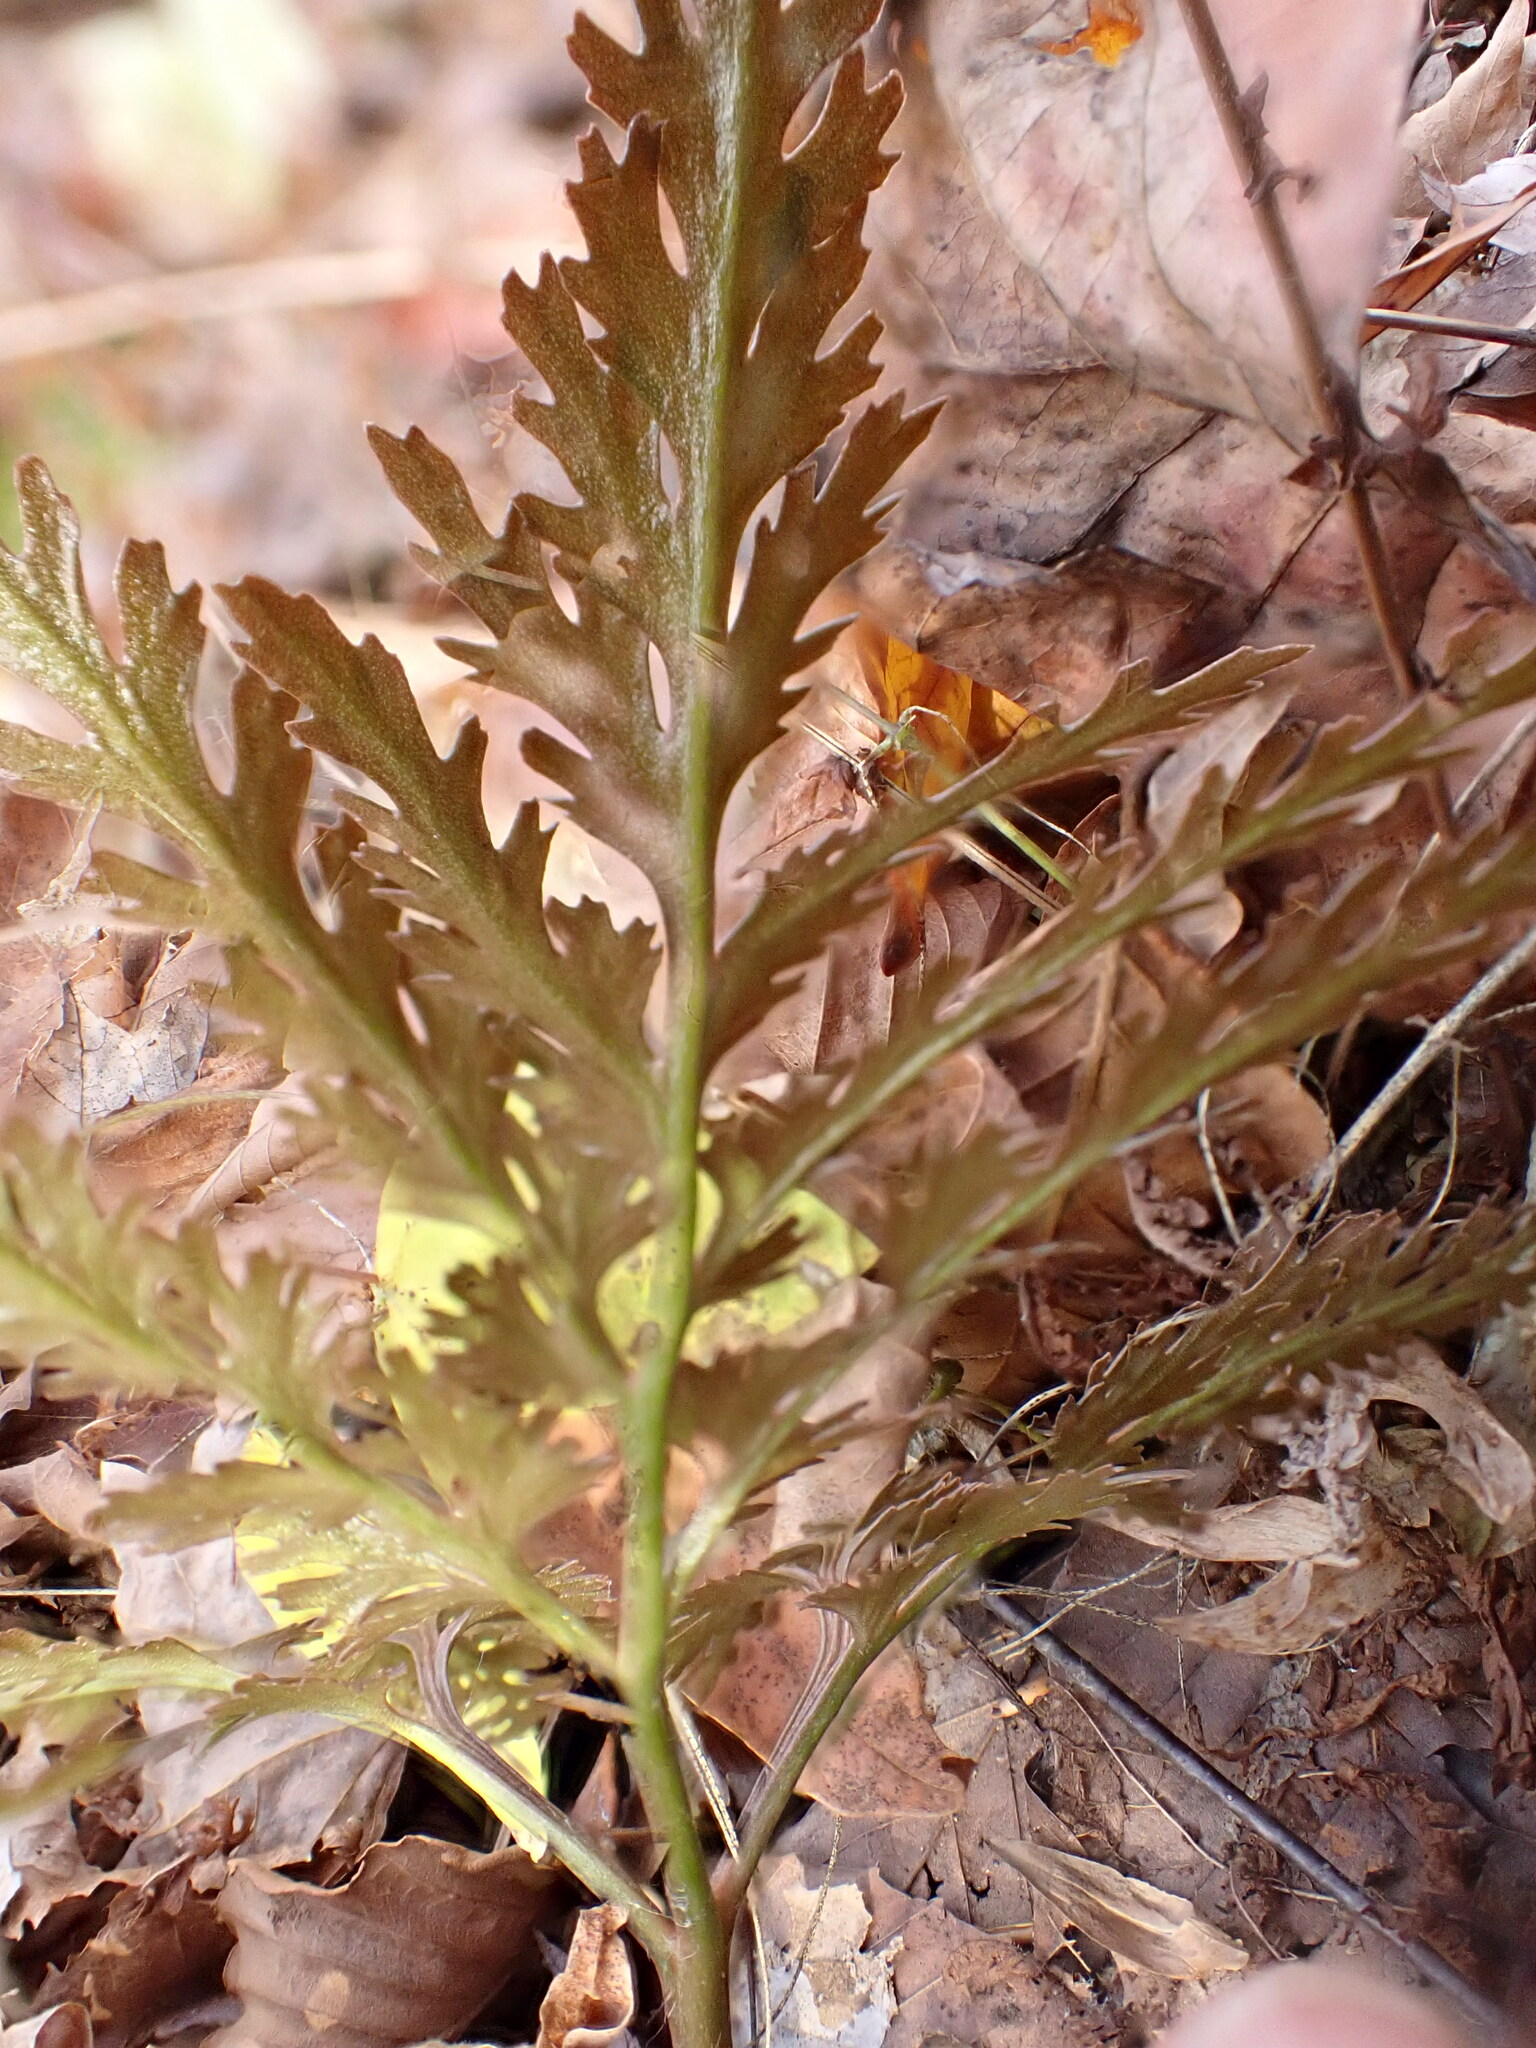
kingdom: Plantae
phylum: Tracheophyta
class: Polypodiopsida
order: Ophioglossales
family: Ophioglossaceae
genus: Sceptridium
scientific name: Sceptridium dissectum
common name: Cut-leaved grapefern
